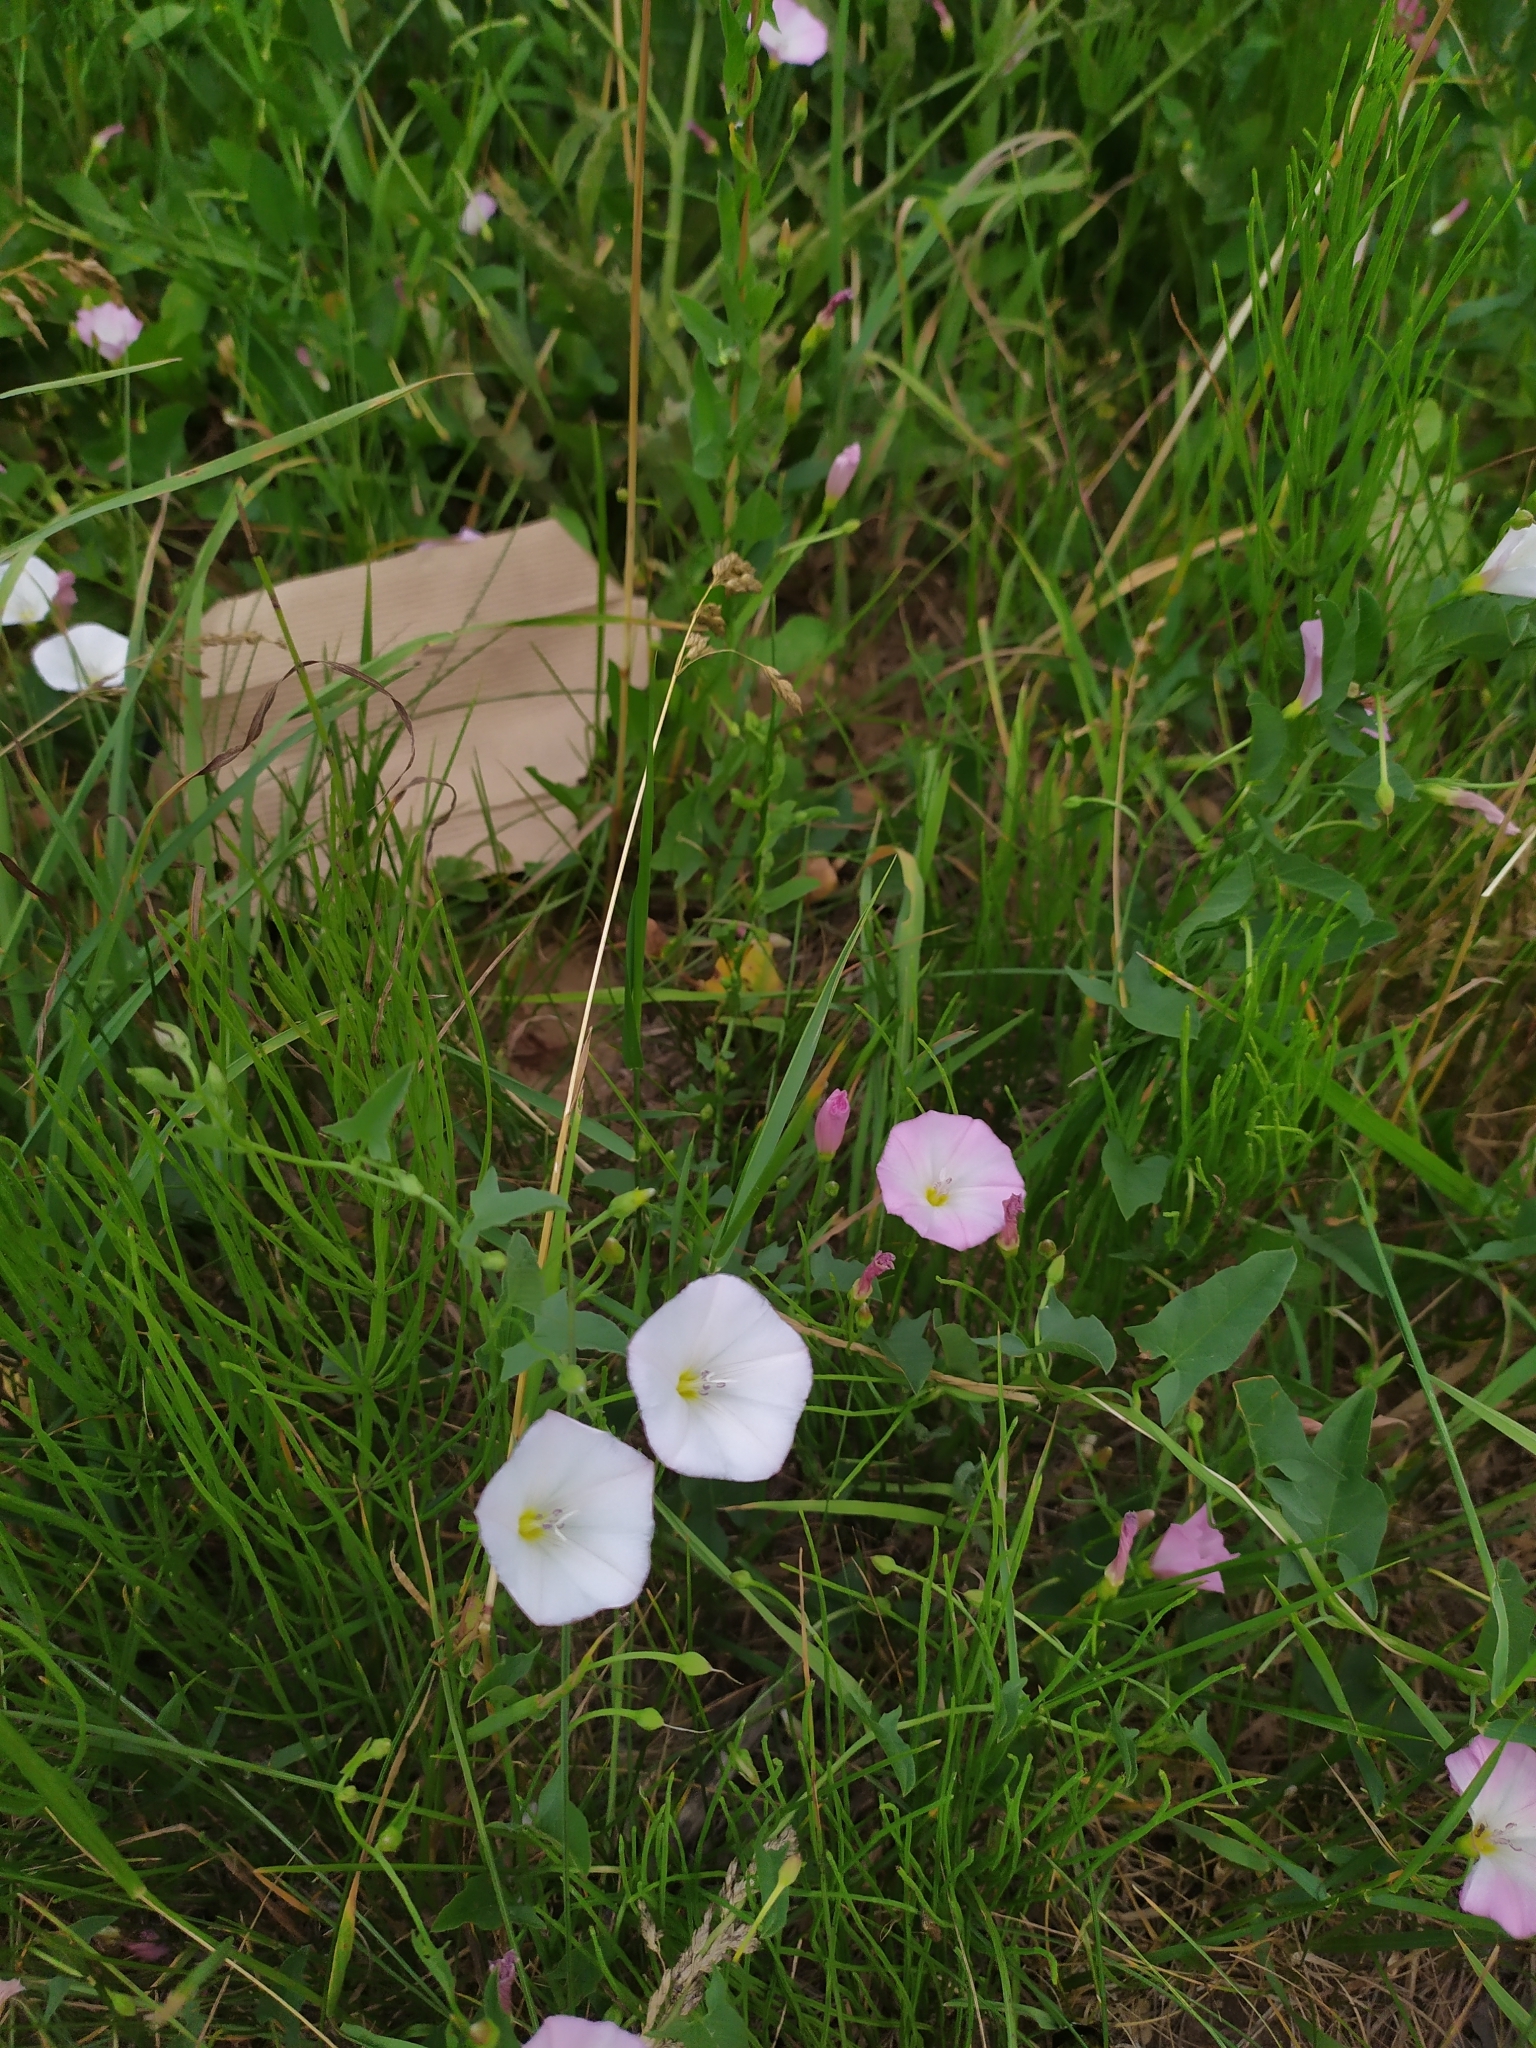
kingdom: Plantae
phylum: Tracheophyta
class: Magnoliopsida
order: Solanales
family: Convolvulaceae
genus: Convolvulus
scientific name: Convolvulus arvensis
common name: Field bindweed
